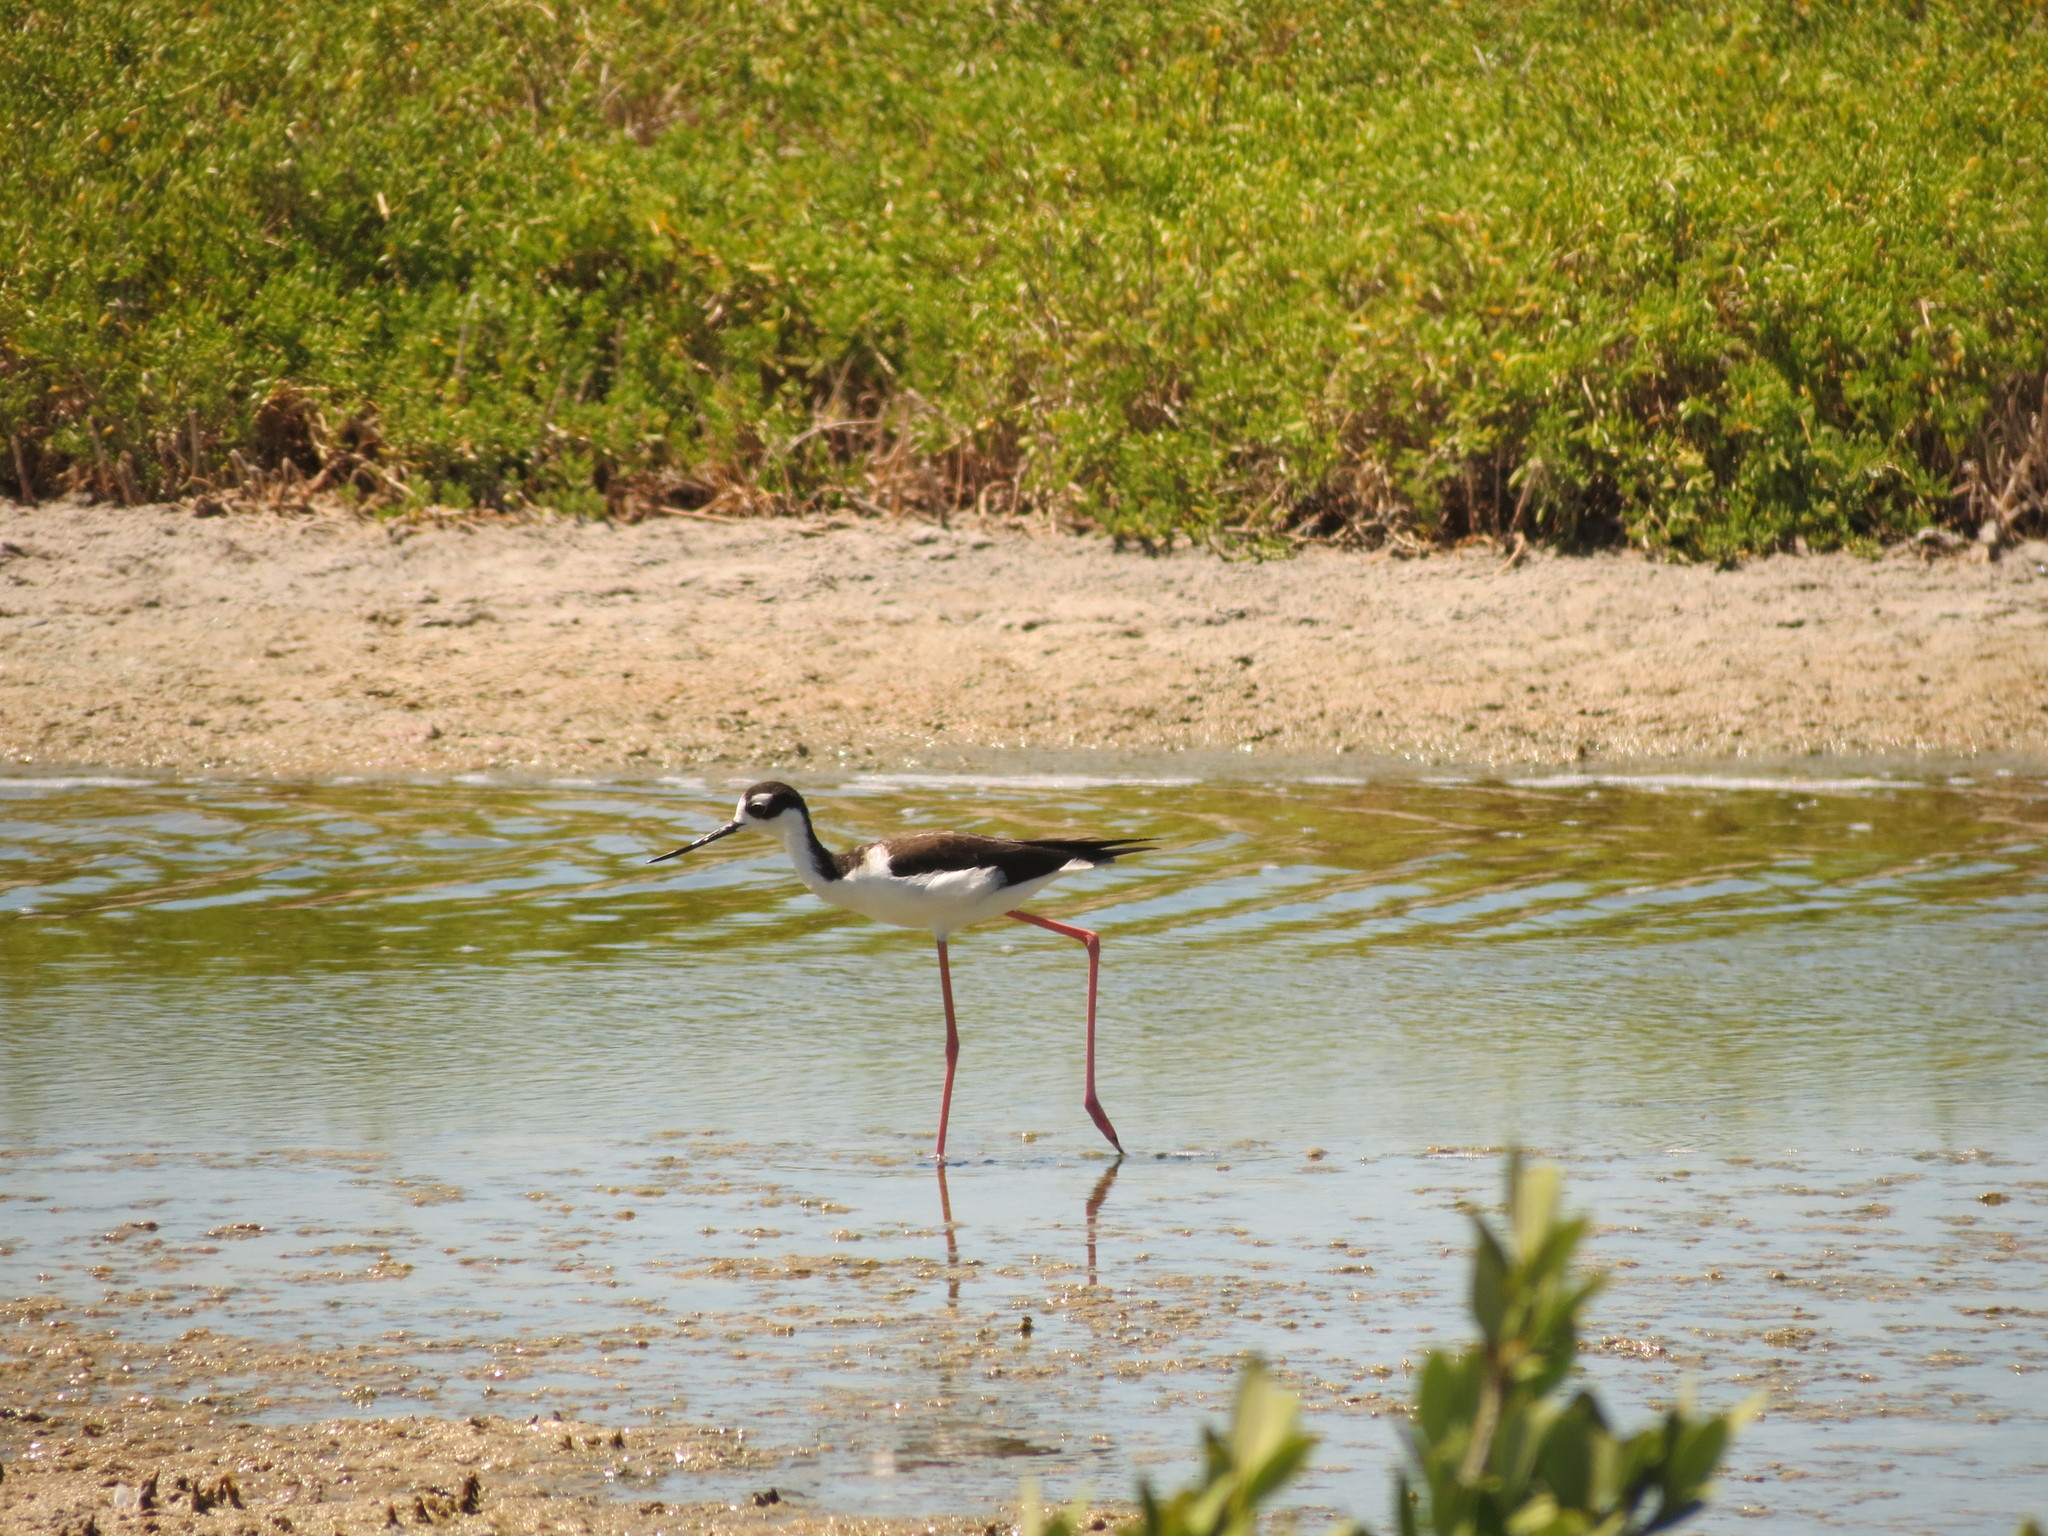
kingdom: Animalia
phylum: Chordata
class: Aves
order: Charadriiformes
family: Recurvirostridae
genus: Himantopus
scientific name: Himantopus mexicanus
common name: Black-necked stilt
